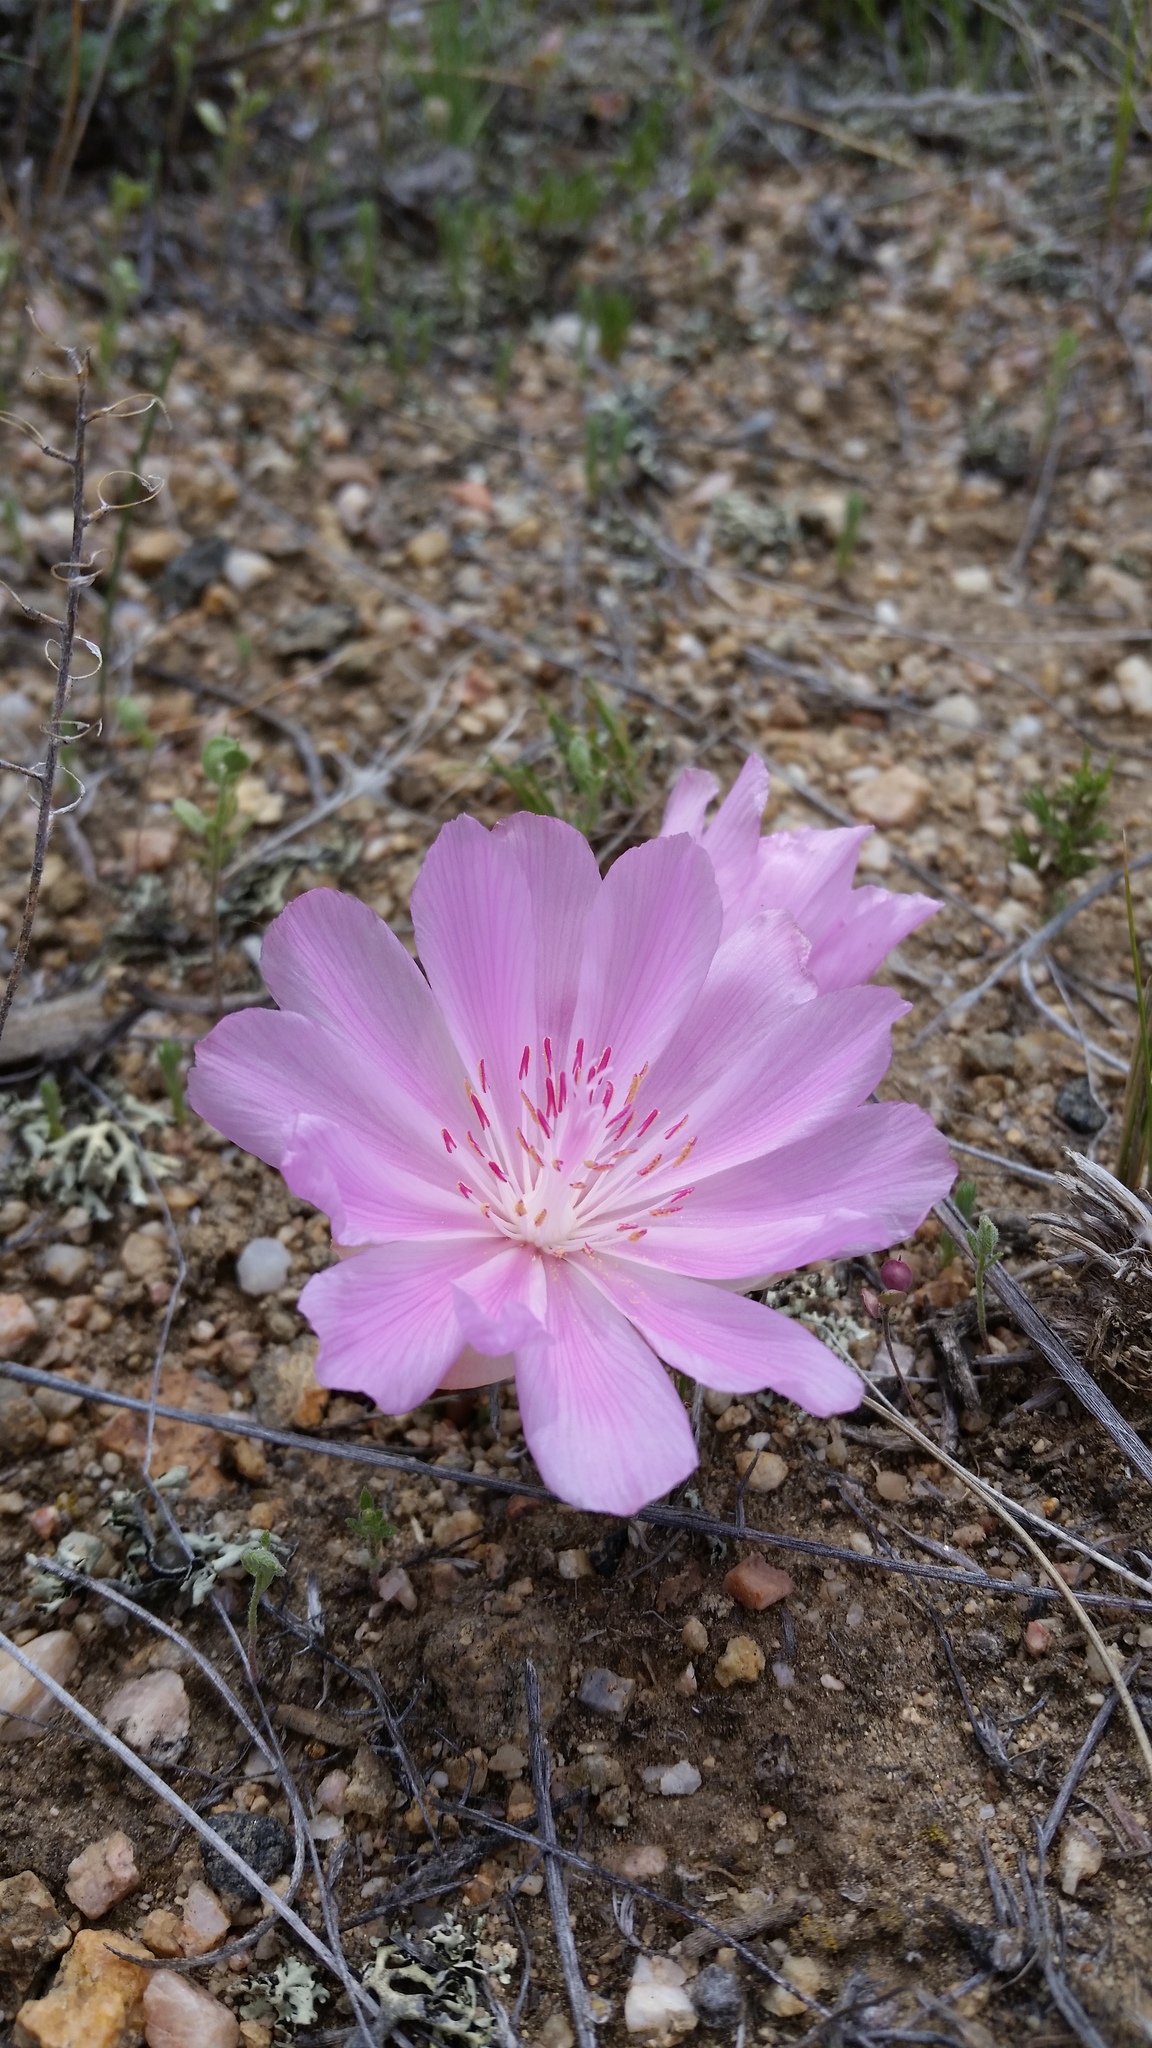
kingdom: Plantae
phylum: Tracheophyta
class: Magnoliopsida
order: Caryophyllales
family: Montiaceae
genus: Lewisia
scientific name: Lewisia rediviva
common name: Bitter-root
